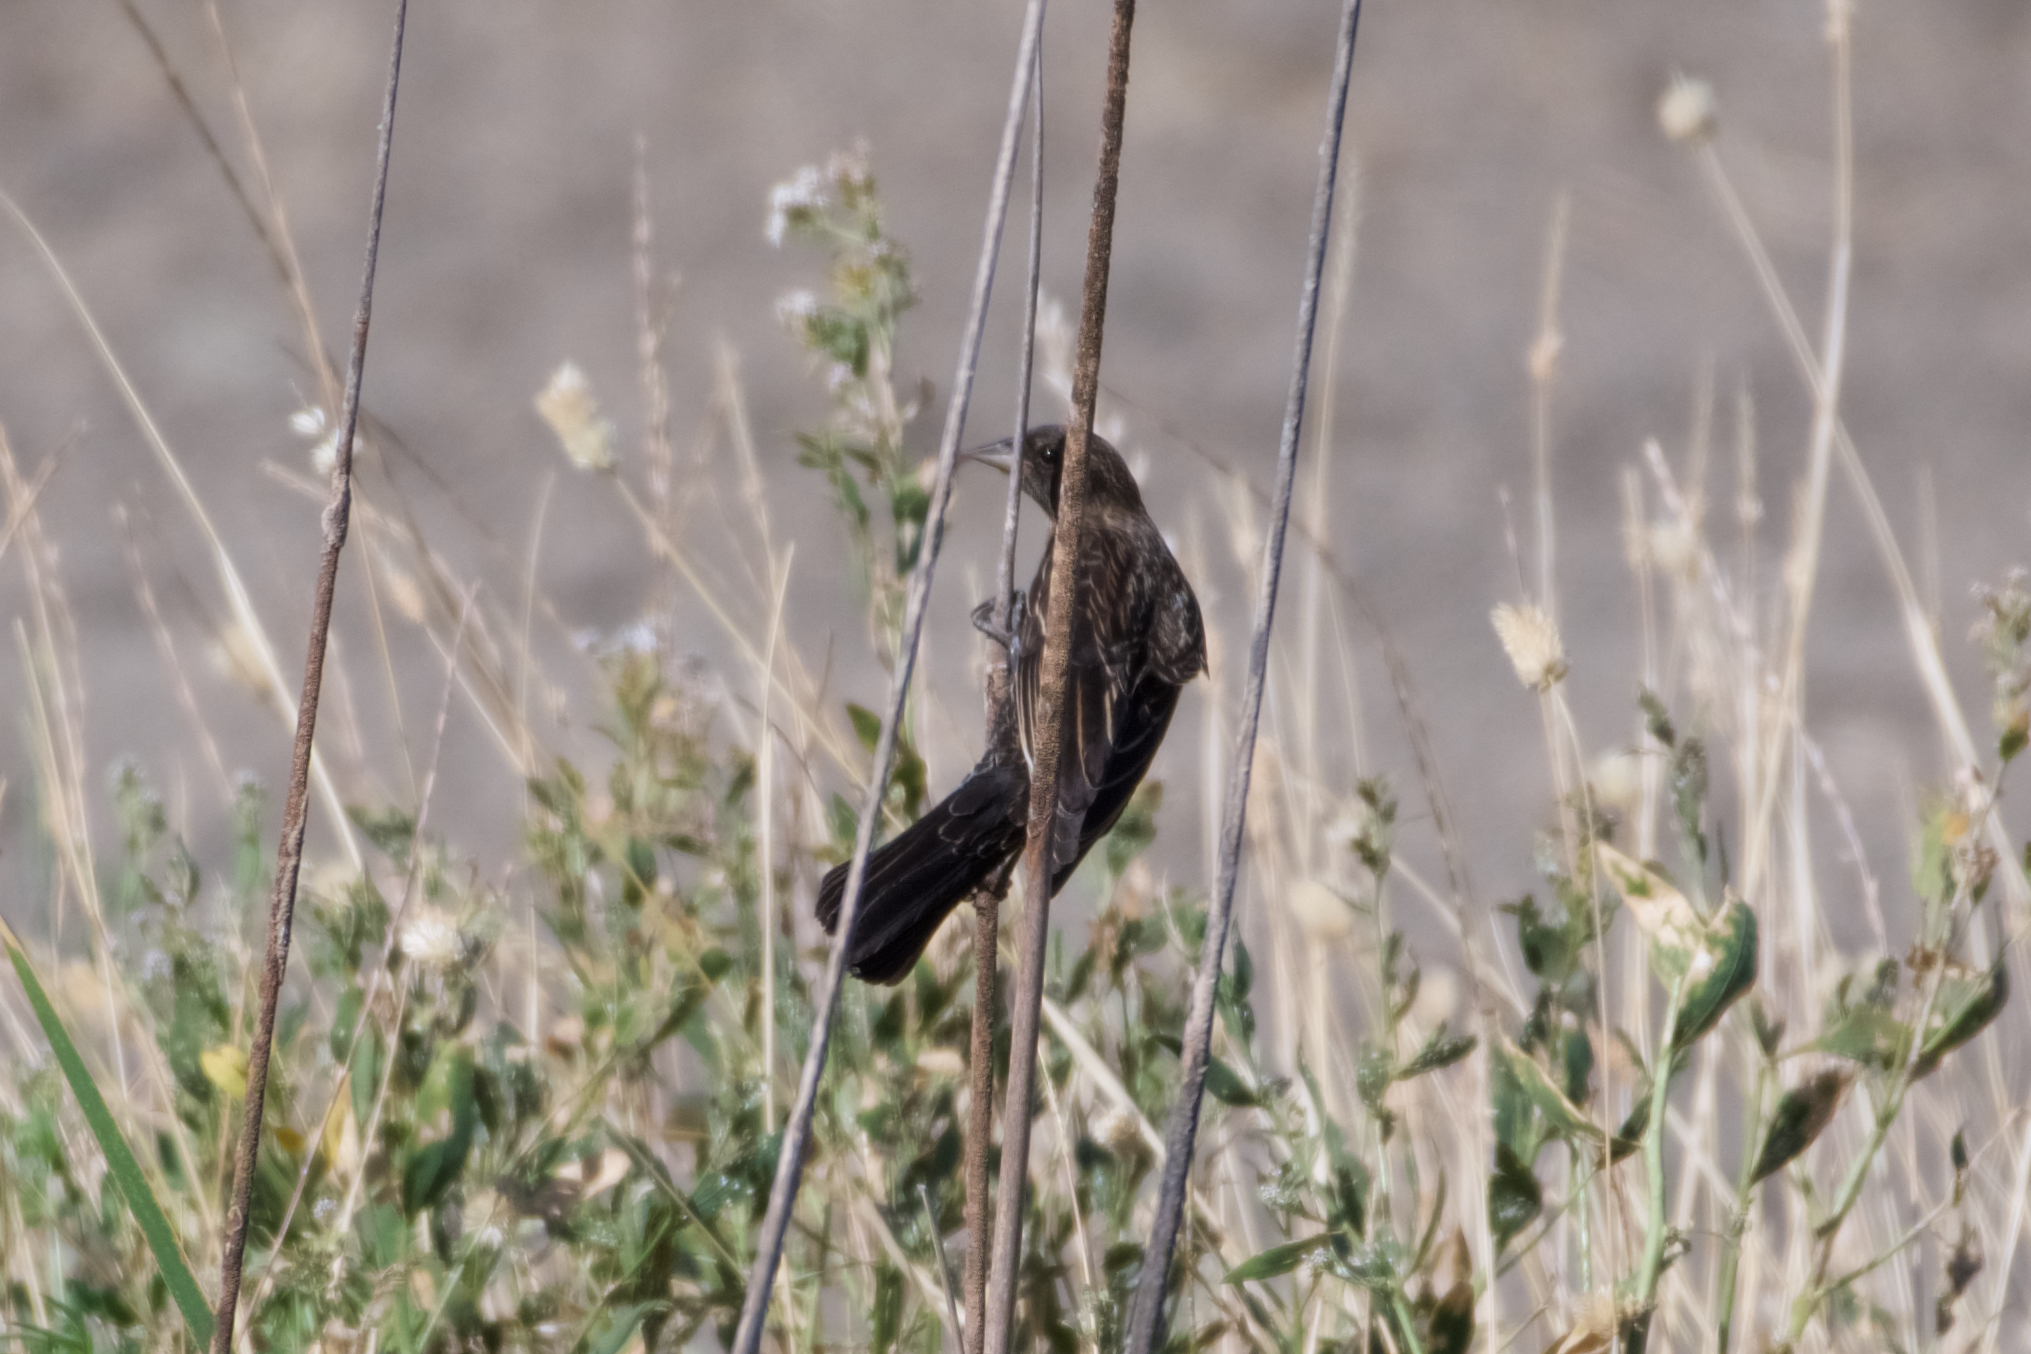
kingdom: Animalia
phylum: Chordata
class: Aves
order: Passeriformes
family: Icteridae
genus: Agelaius
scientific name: Agelaius phoeniceus
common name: Red-winged blackbird
